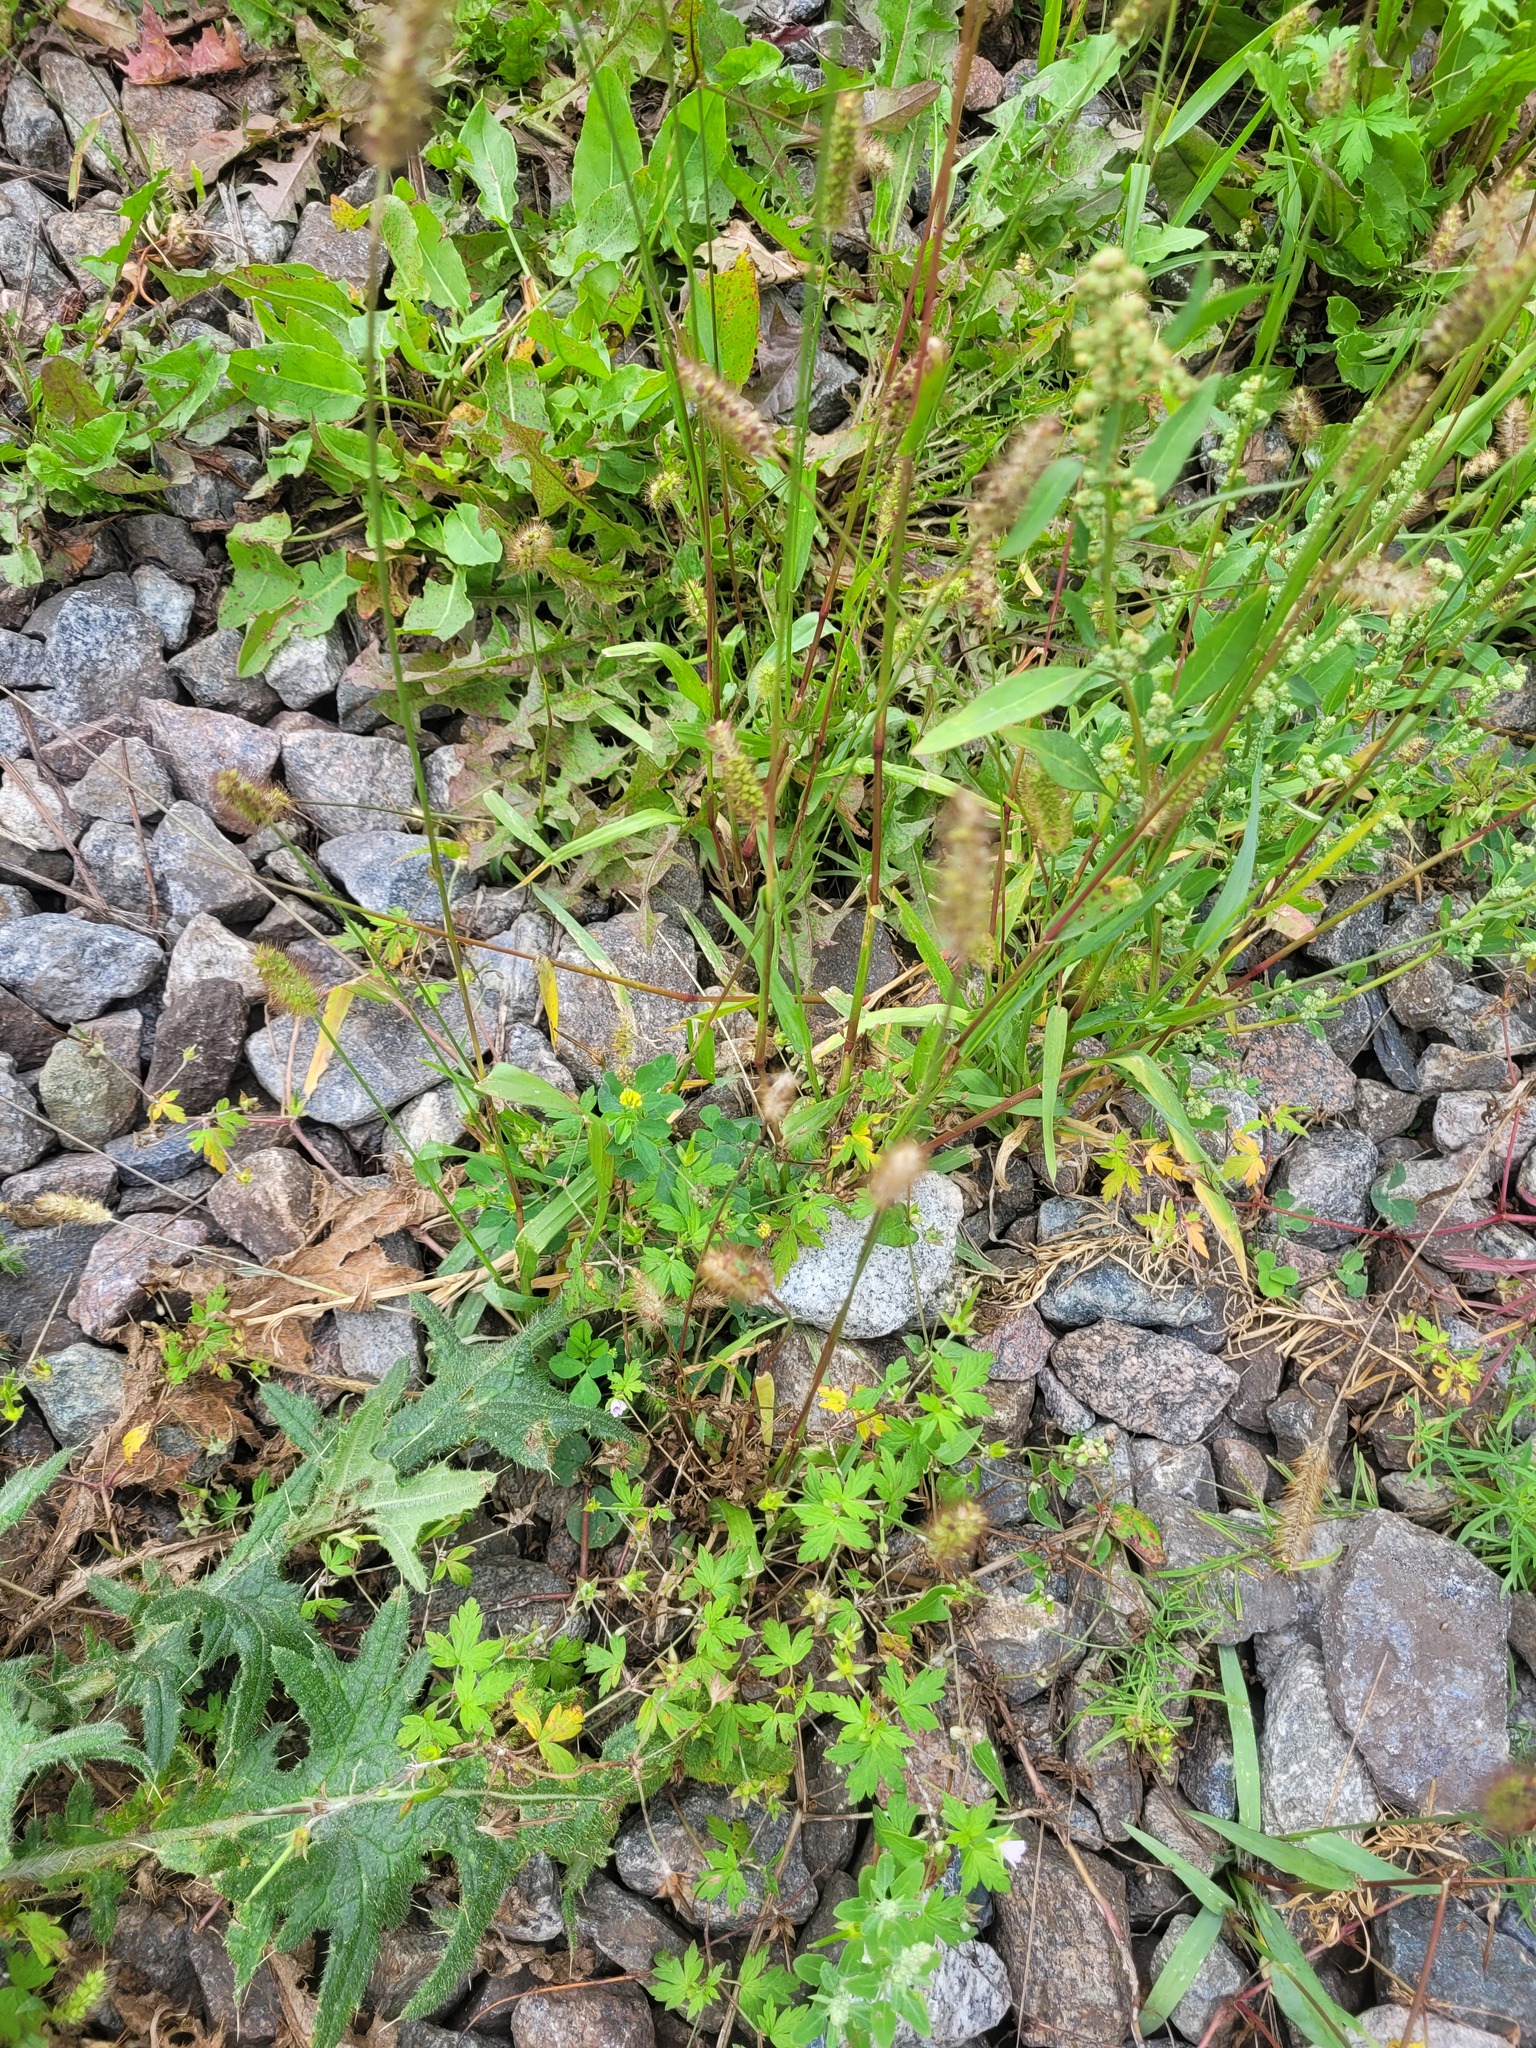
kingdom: Plantae
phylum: Tracheophyta
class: Magnoliopsida
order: Fabales
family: Fabaceae
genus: Medicago
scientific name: Medicago lupulina
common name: Black medick
